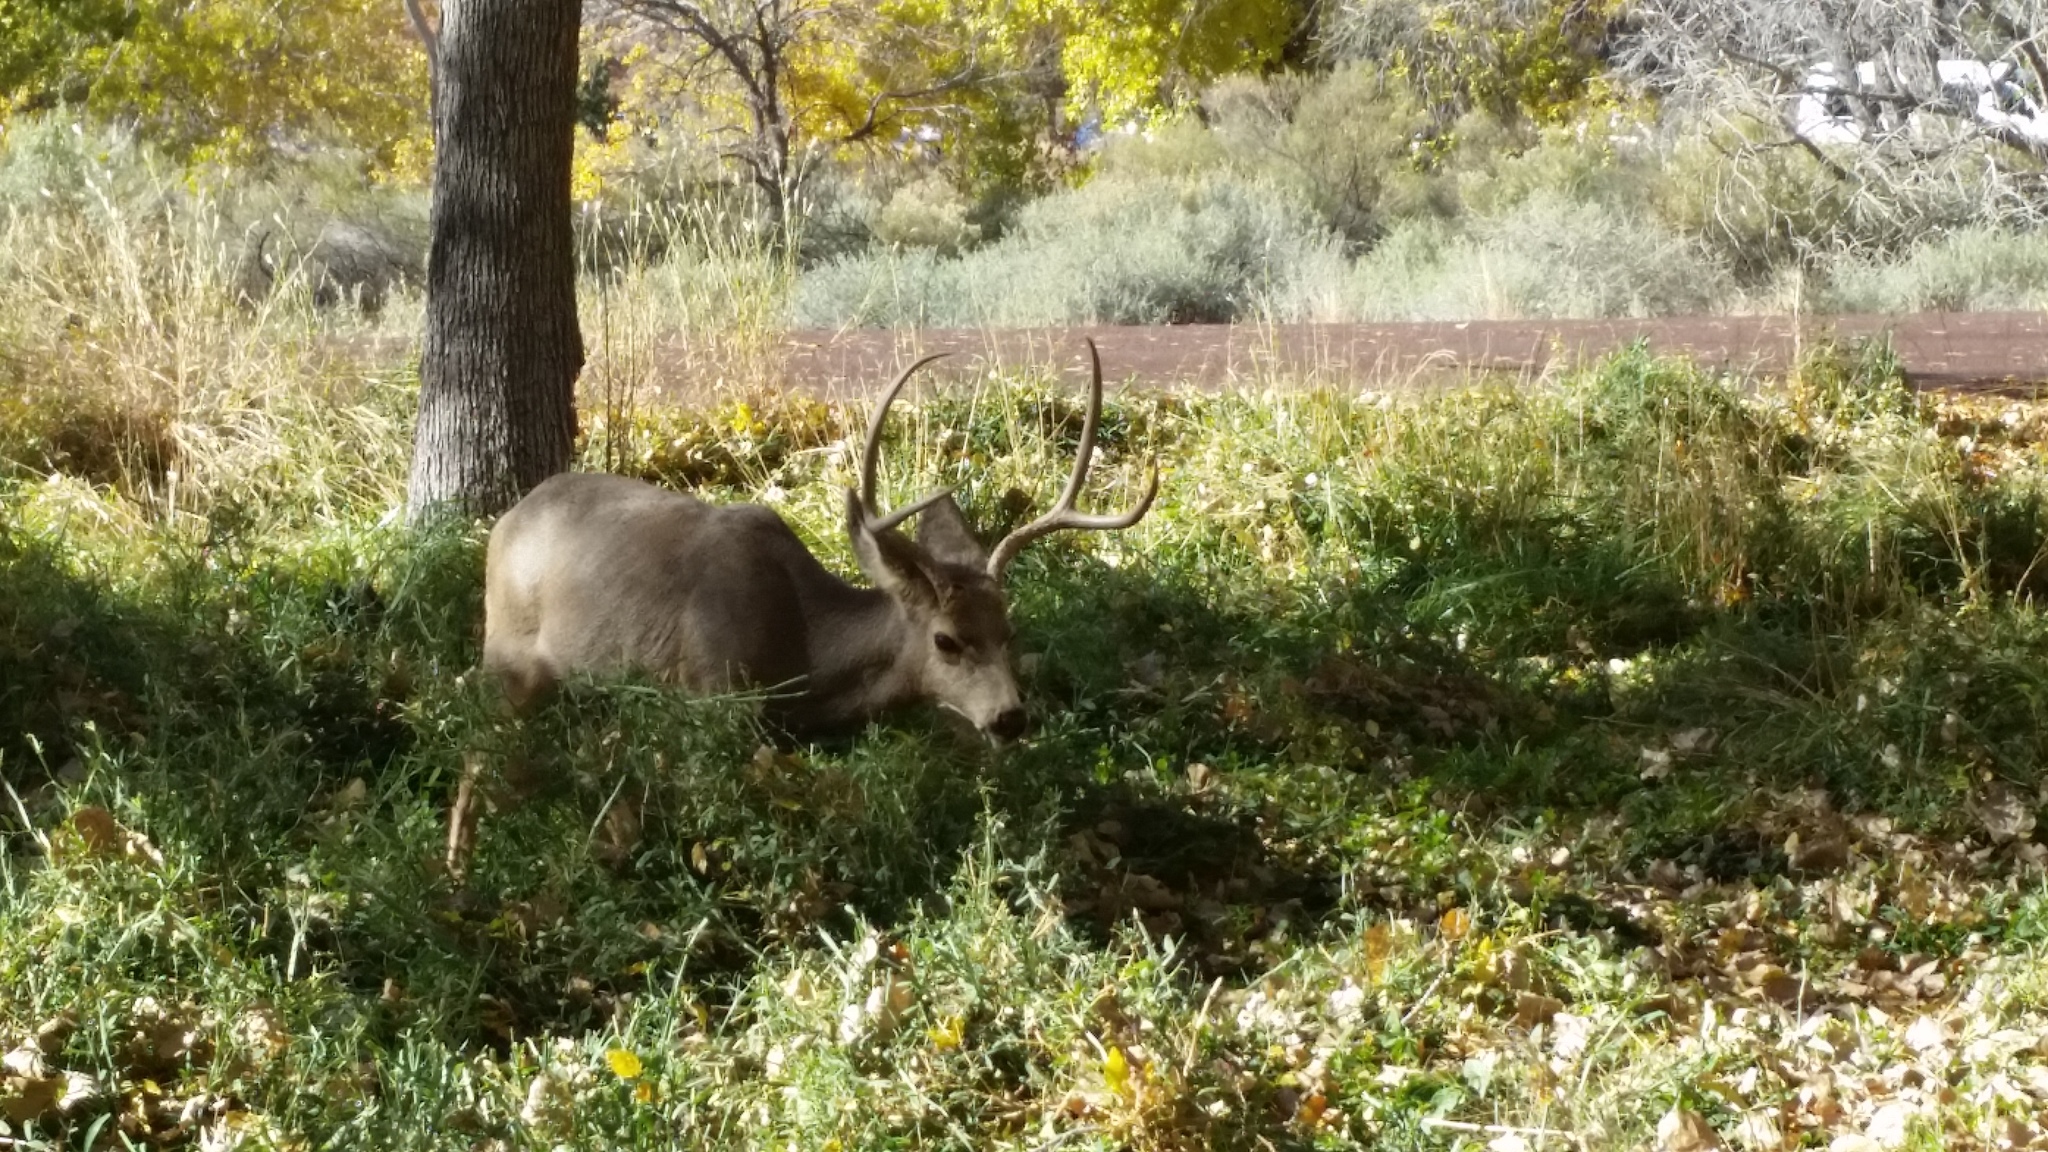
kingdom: Animalia
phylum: Chordata
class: Mammalia
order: Artiodactyla
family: Cervidae
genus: Odocoileus
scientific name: Odocoileus hemionus
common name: Mule deer
